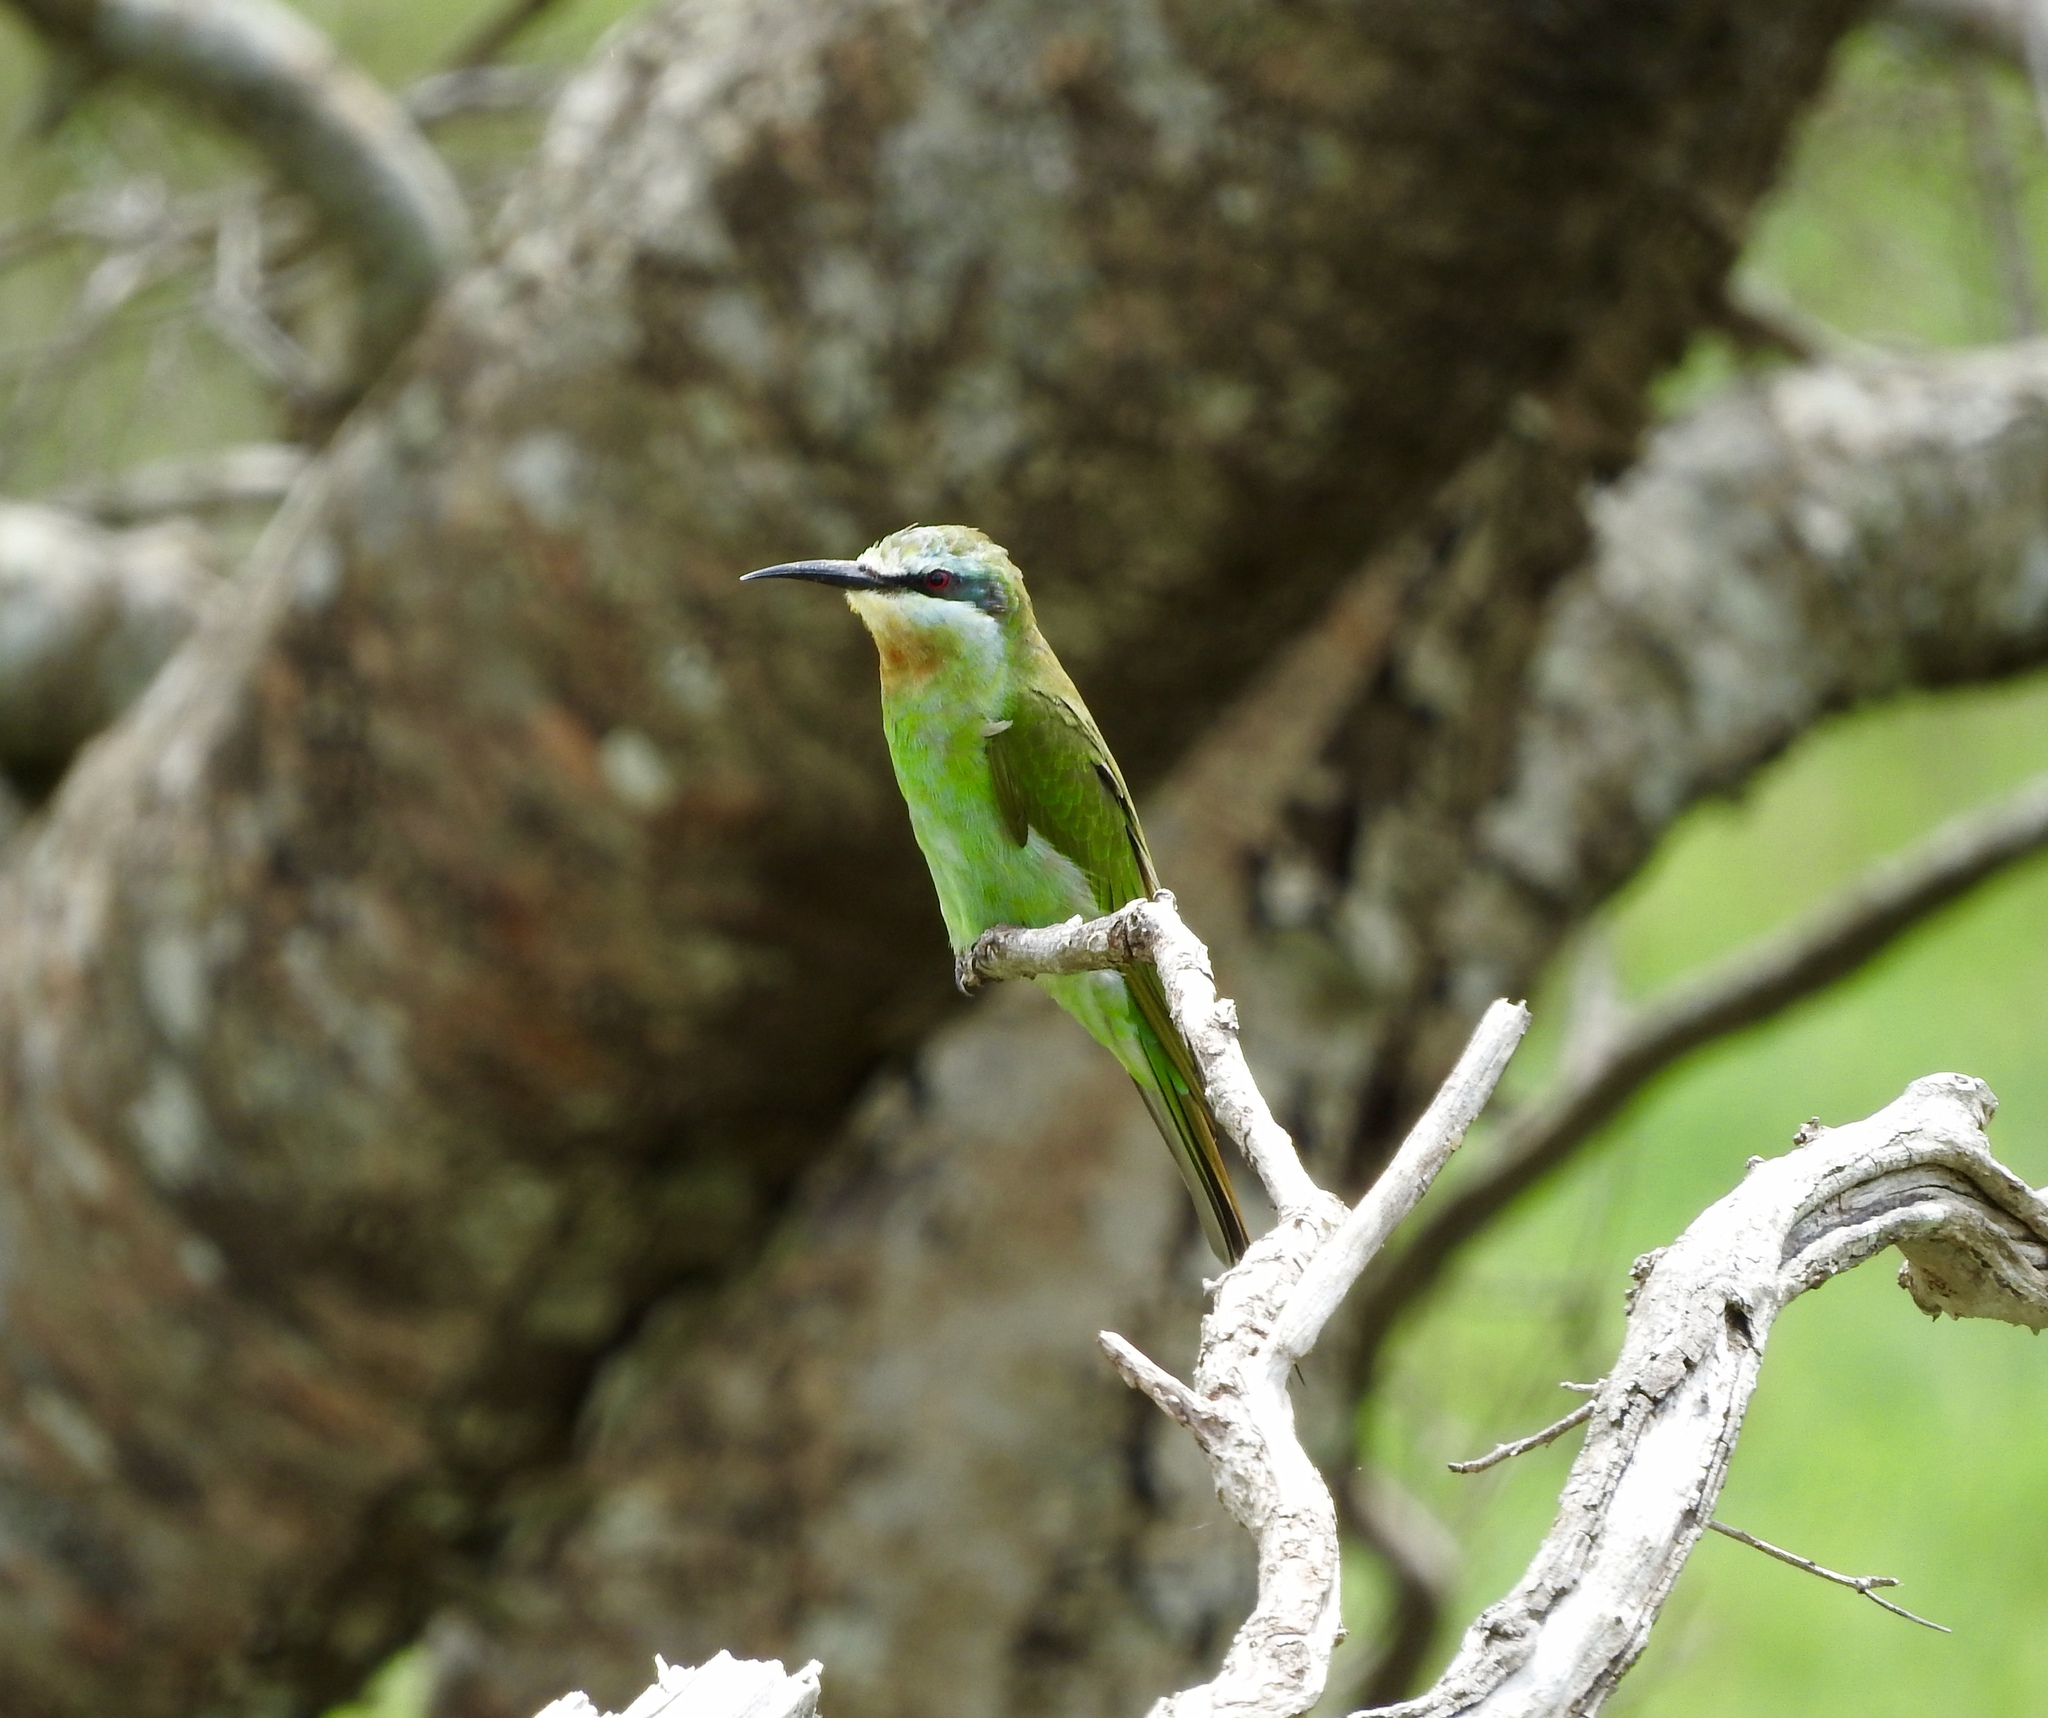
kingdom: Animalia
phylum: Chordata
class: Aves
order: Coraciiformes
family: Meropidae
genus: Merops
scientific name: Merops persicus
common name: Blue-cheeked bee-eater
